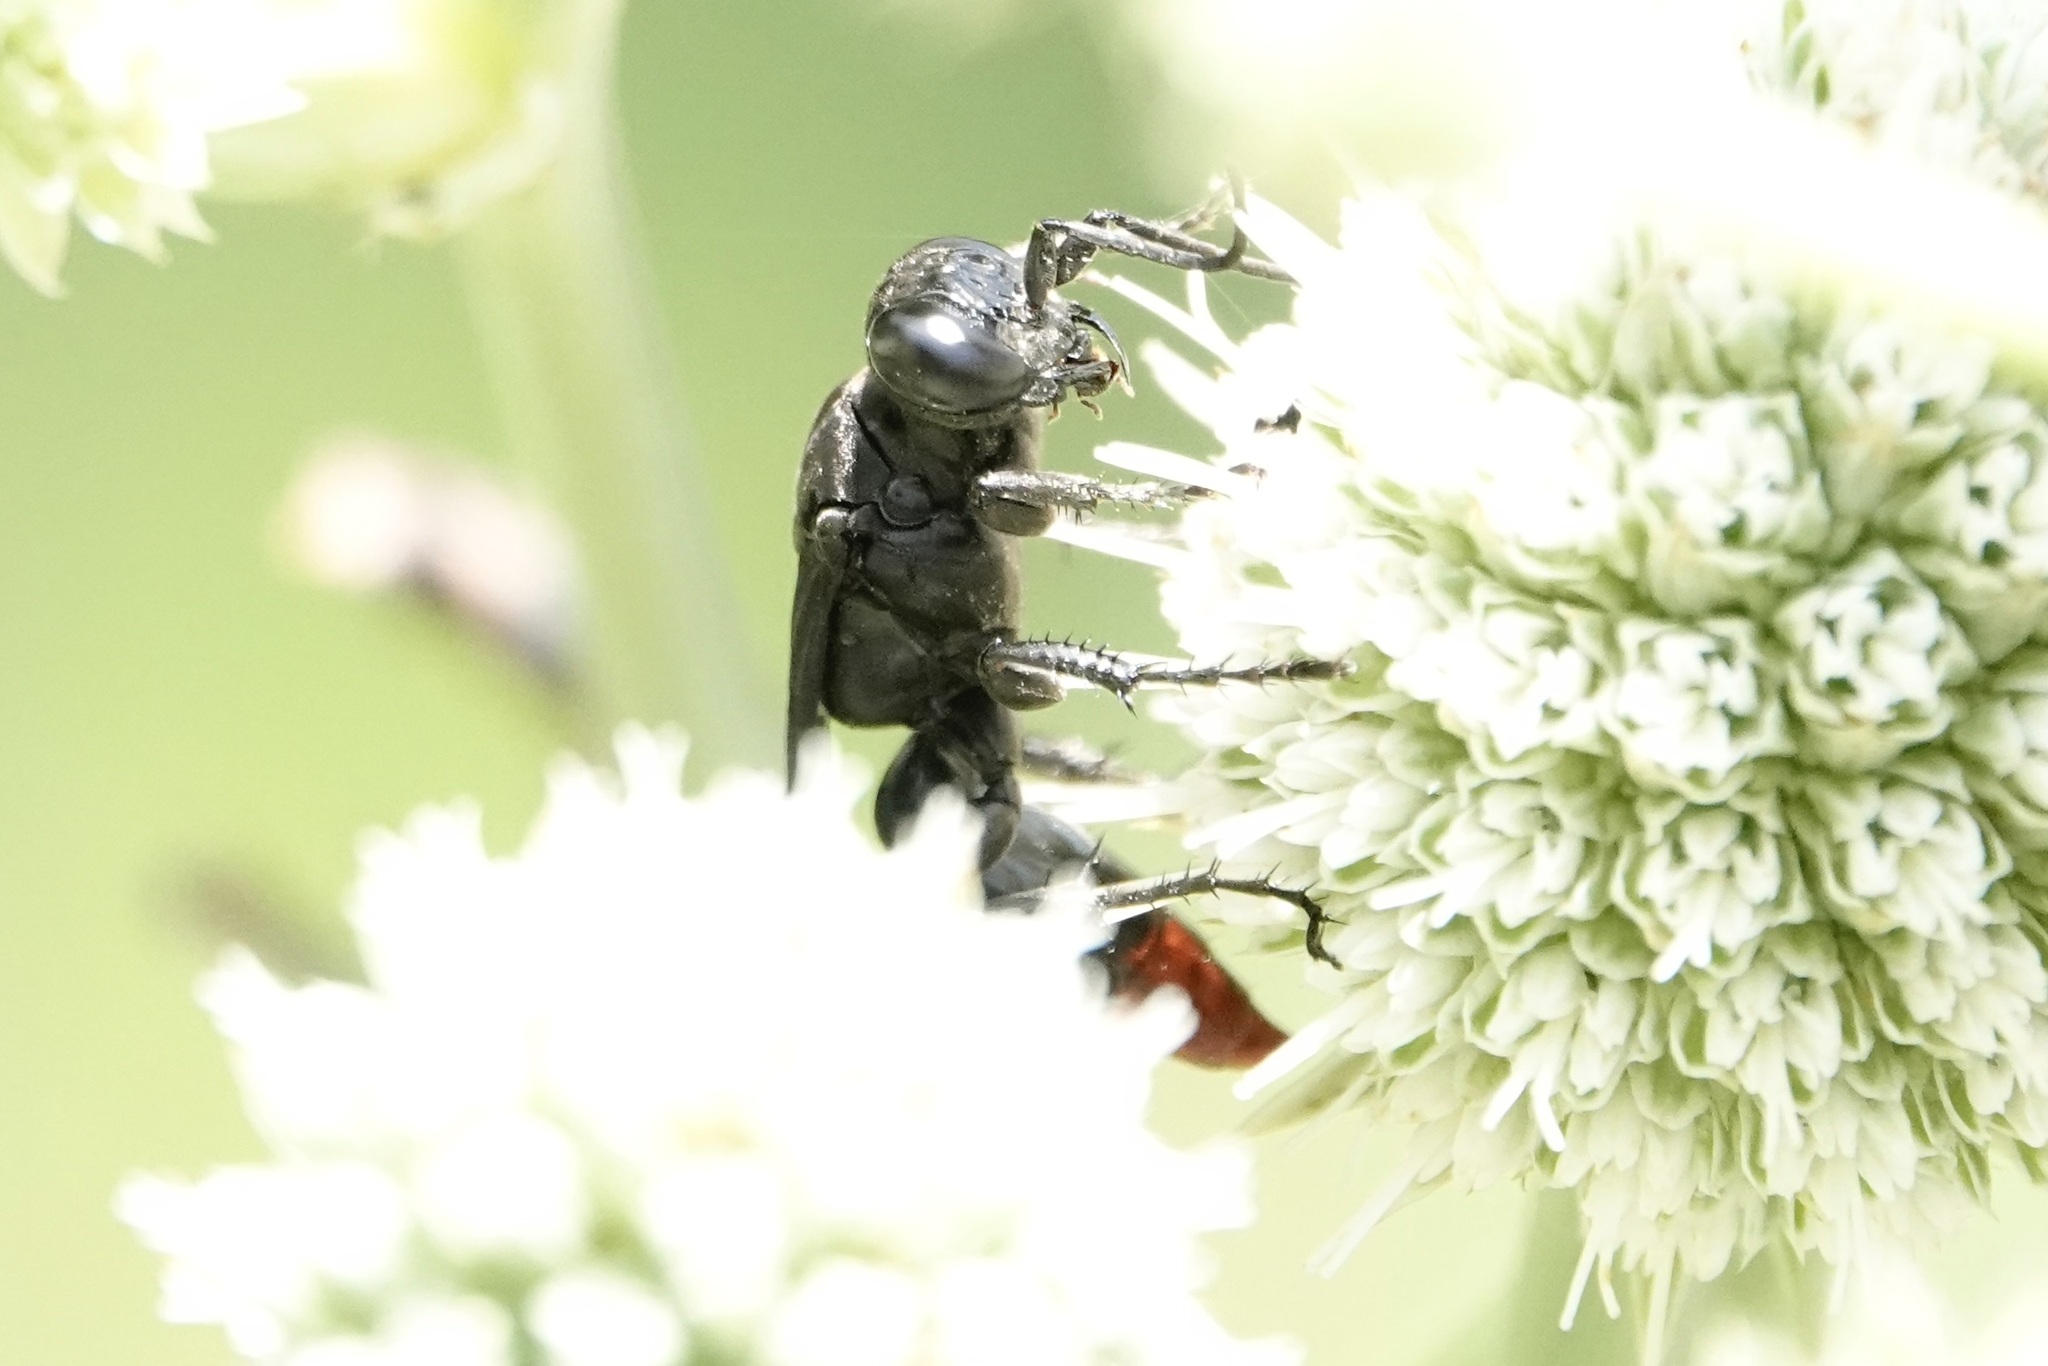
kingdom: Animalia
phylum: Arthropoda
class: Insecta
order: Hymenoptera
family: Crabronidae
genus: Larra
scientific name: Larra analis
